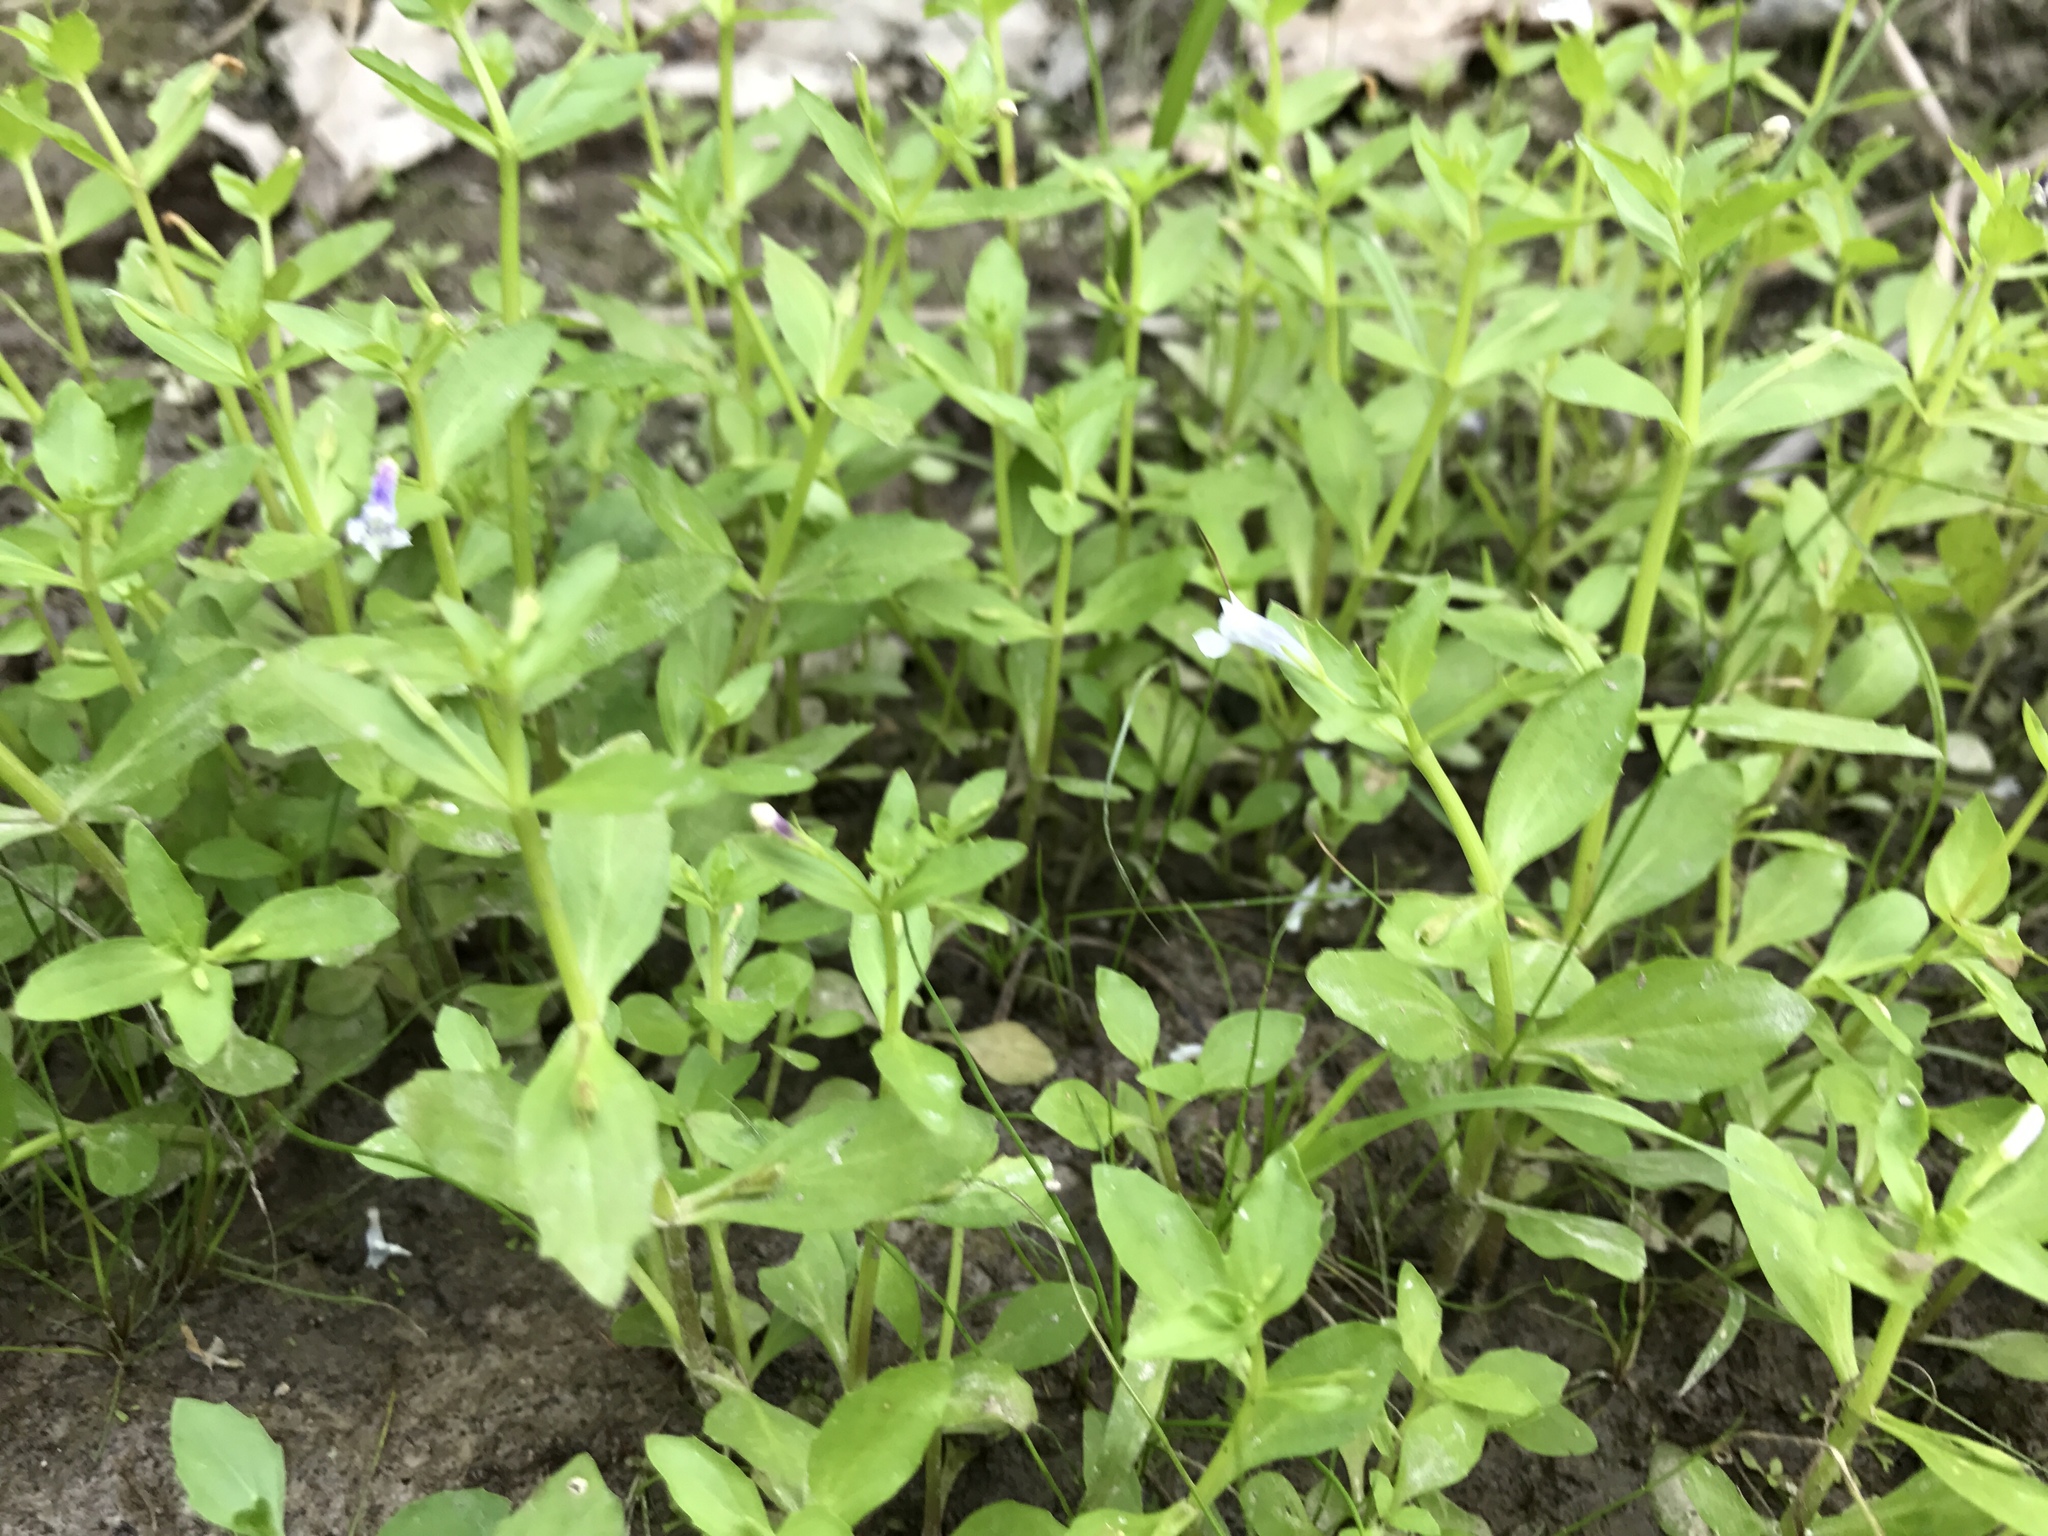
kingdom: Plantae
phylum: Tracheophyta
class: Magnoliopsida
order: Lamiales
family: Linderniaceae
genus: Lindernia
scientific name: Lindernia dubia
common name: Annual false pimpernel
